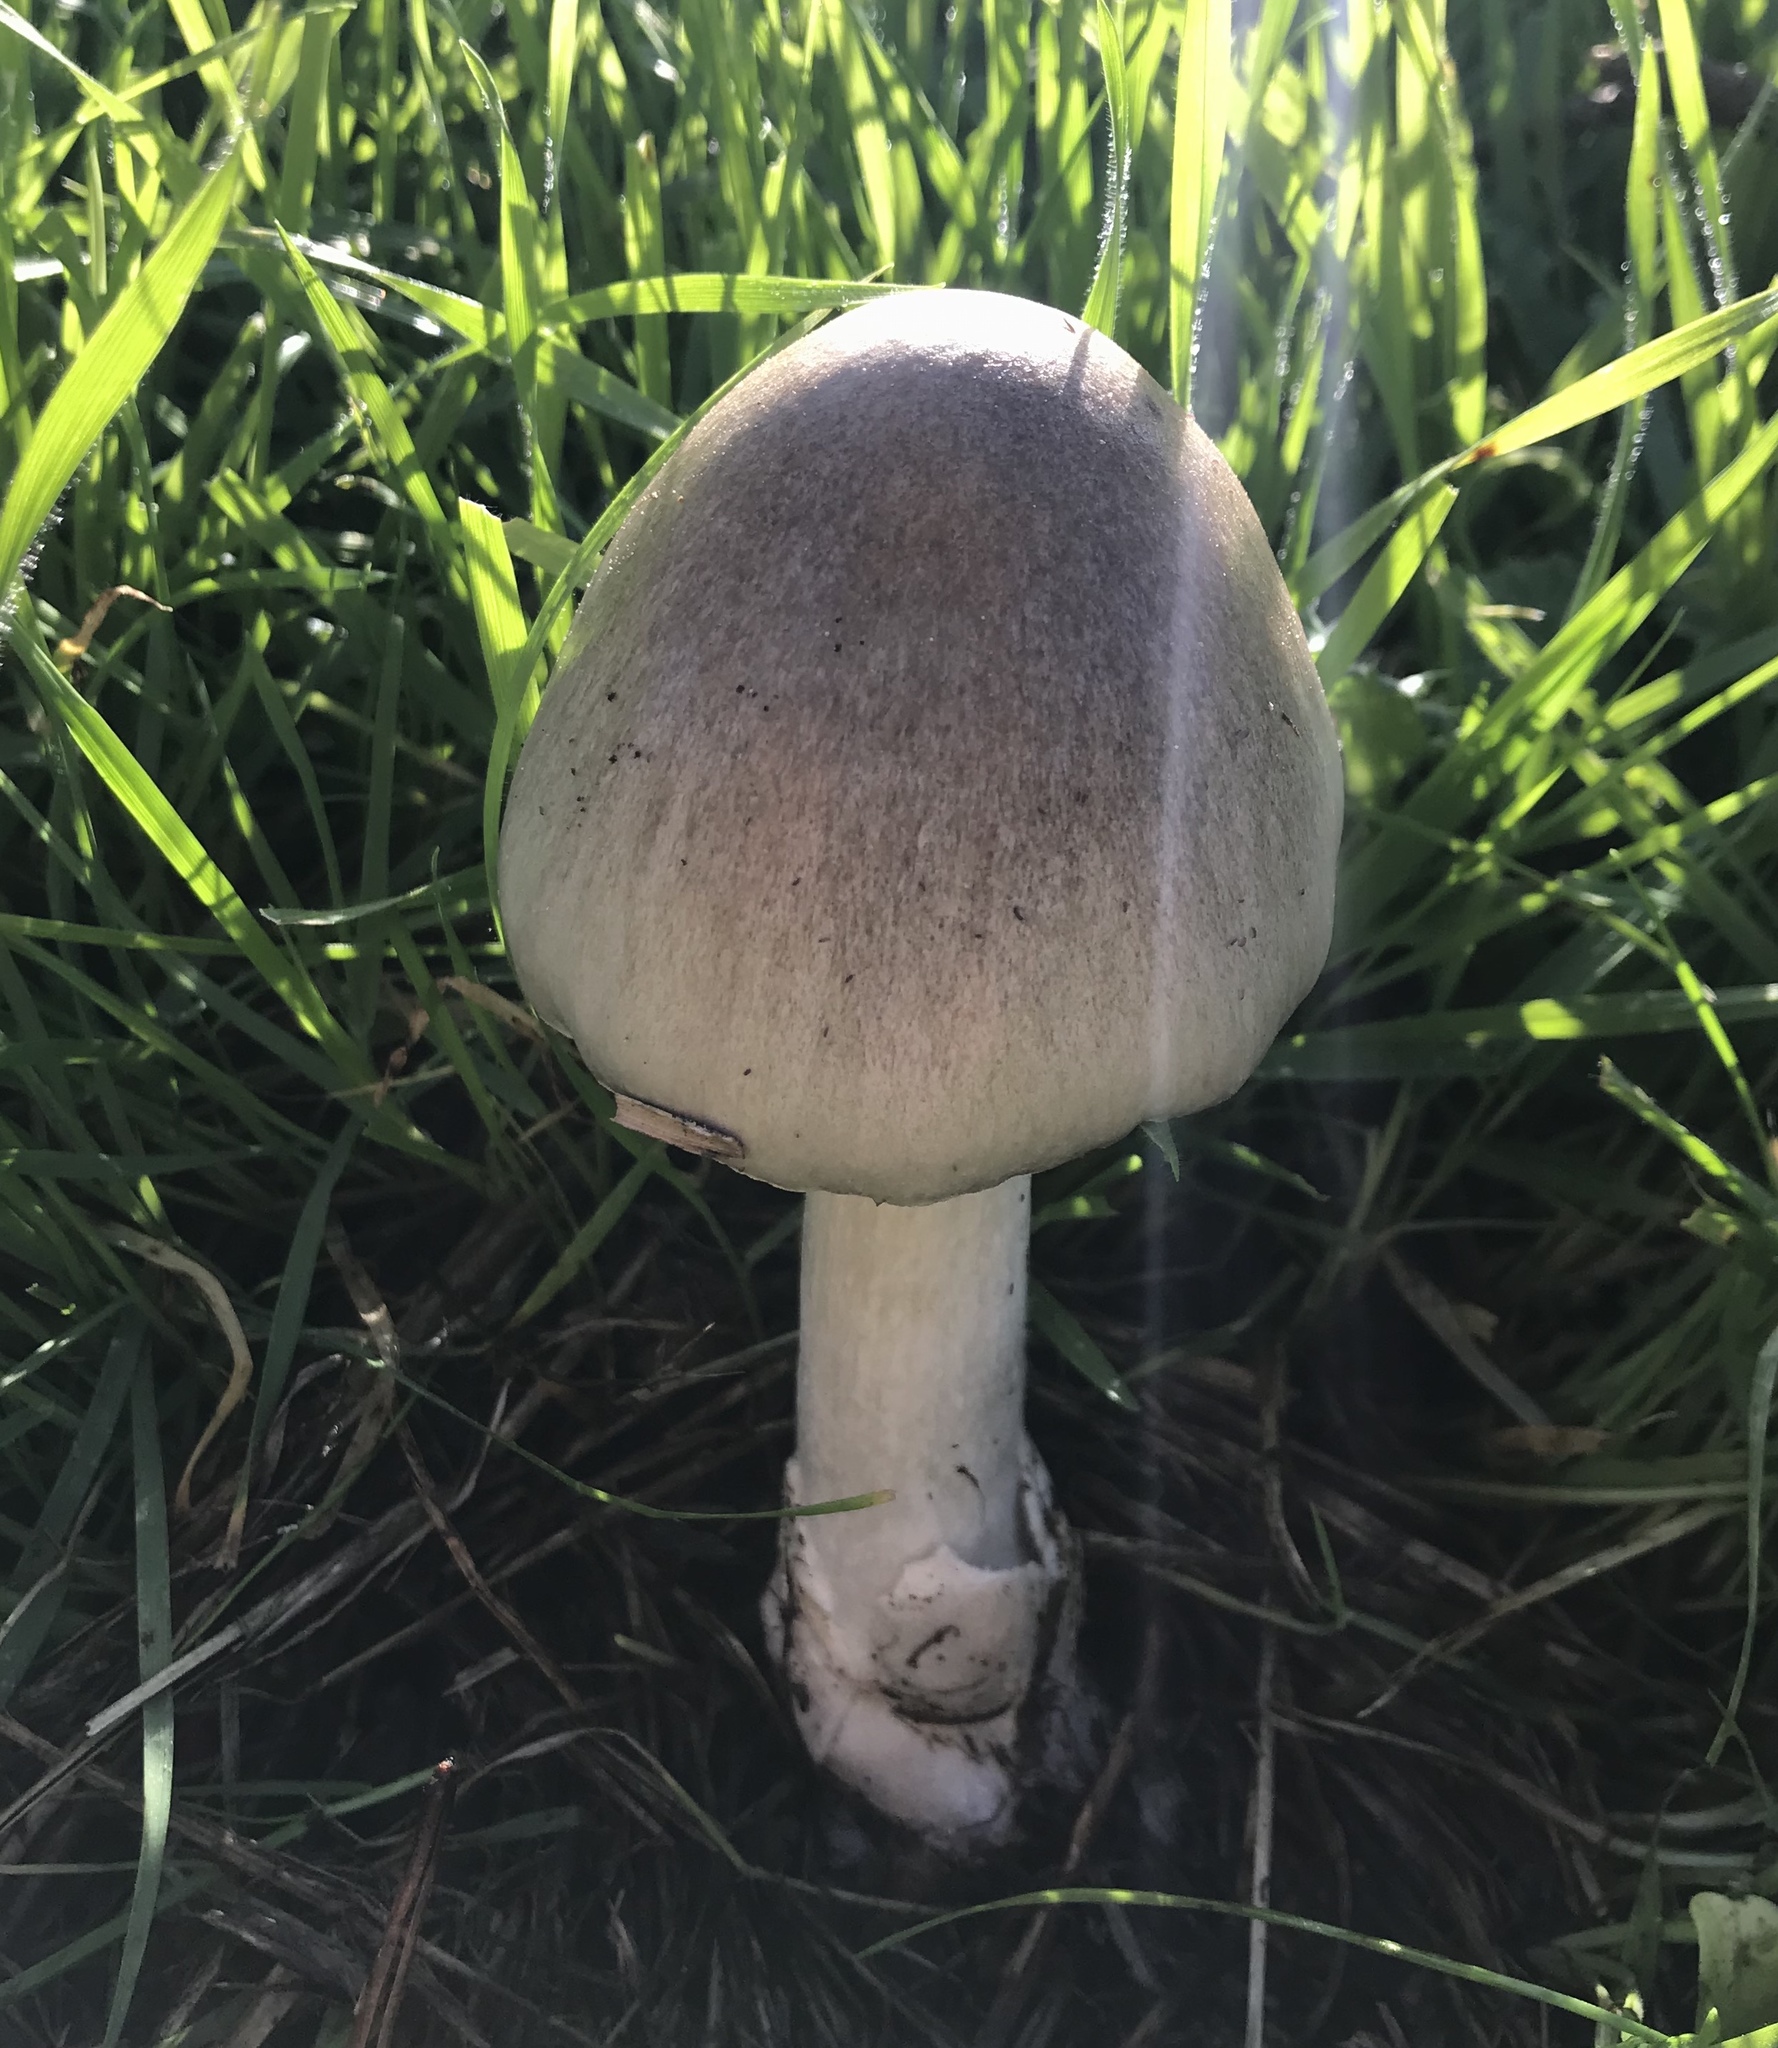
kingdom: Fungi
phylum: Basidiomycota
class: Agaricomycetes
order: Agaricales
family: Pluteaceae
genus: Volvopluteus
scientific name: Volvopluteus gloiocephalus
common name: Stubble rosegill
